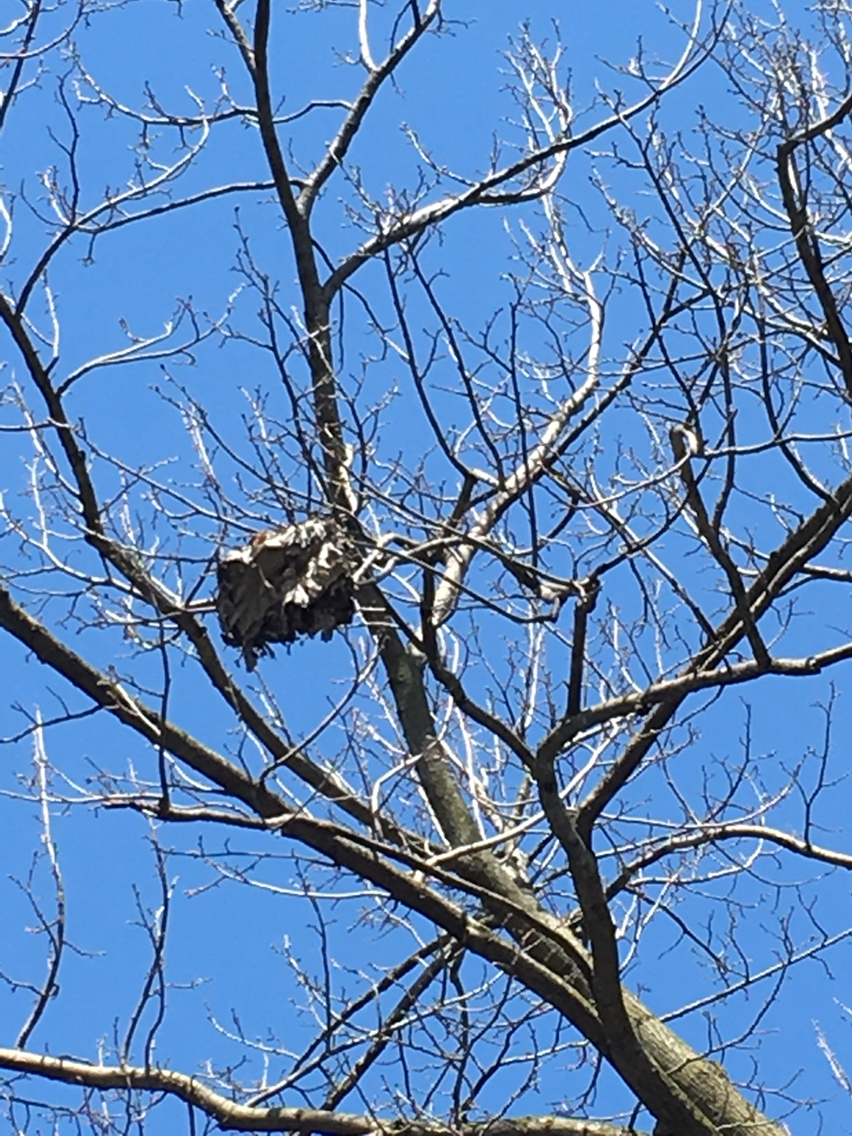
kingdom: Animalia
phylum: Arthropoda
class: Insecta
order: Hymenoptera
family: Vespidae
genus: Dolichovespula
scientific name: Dolichovespula
